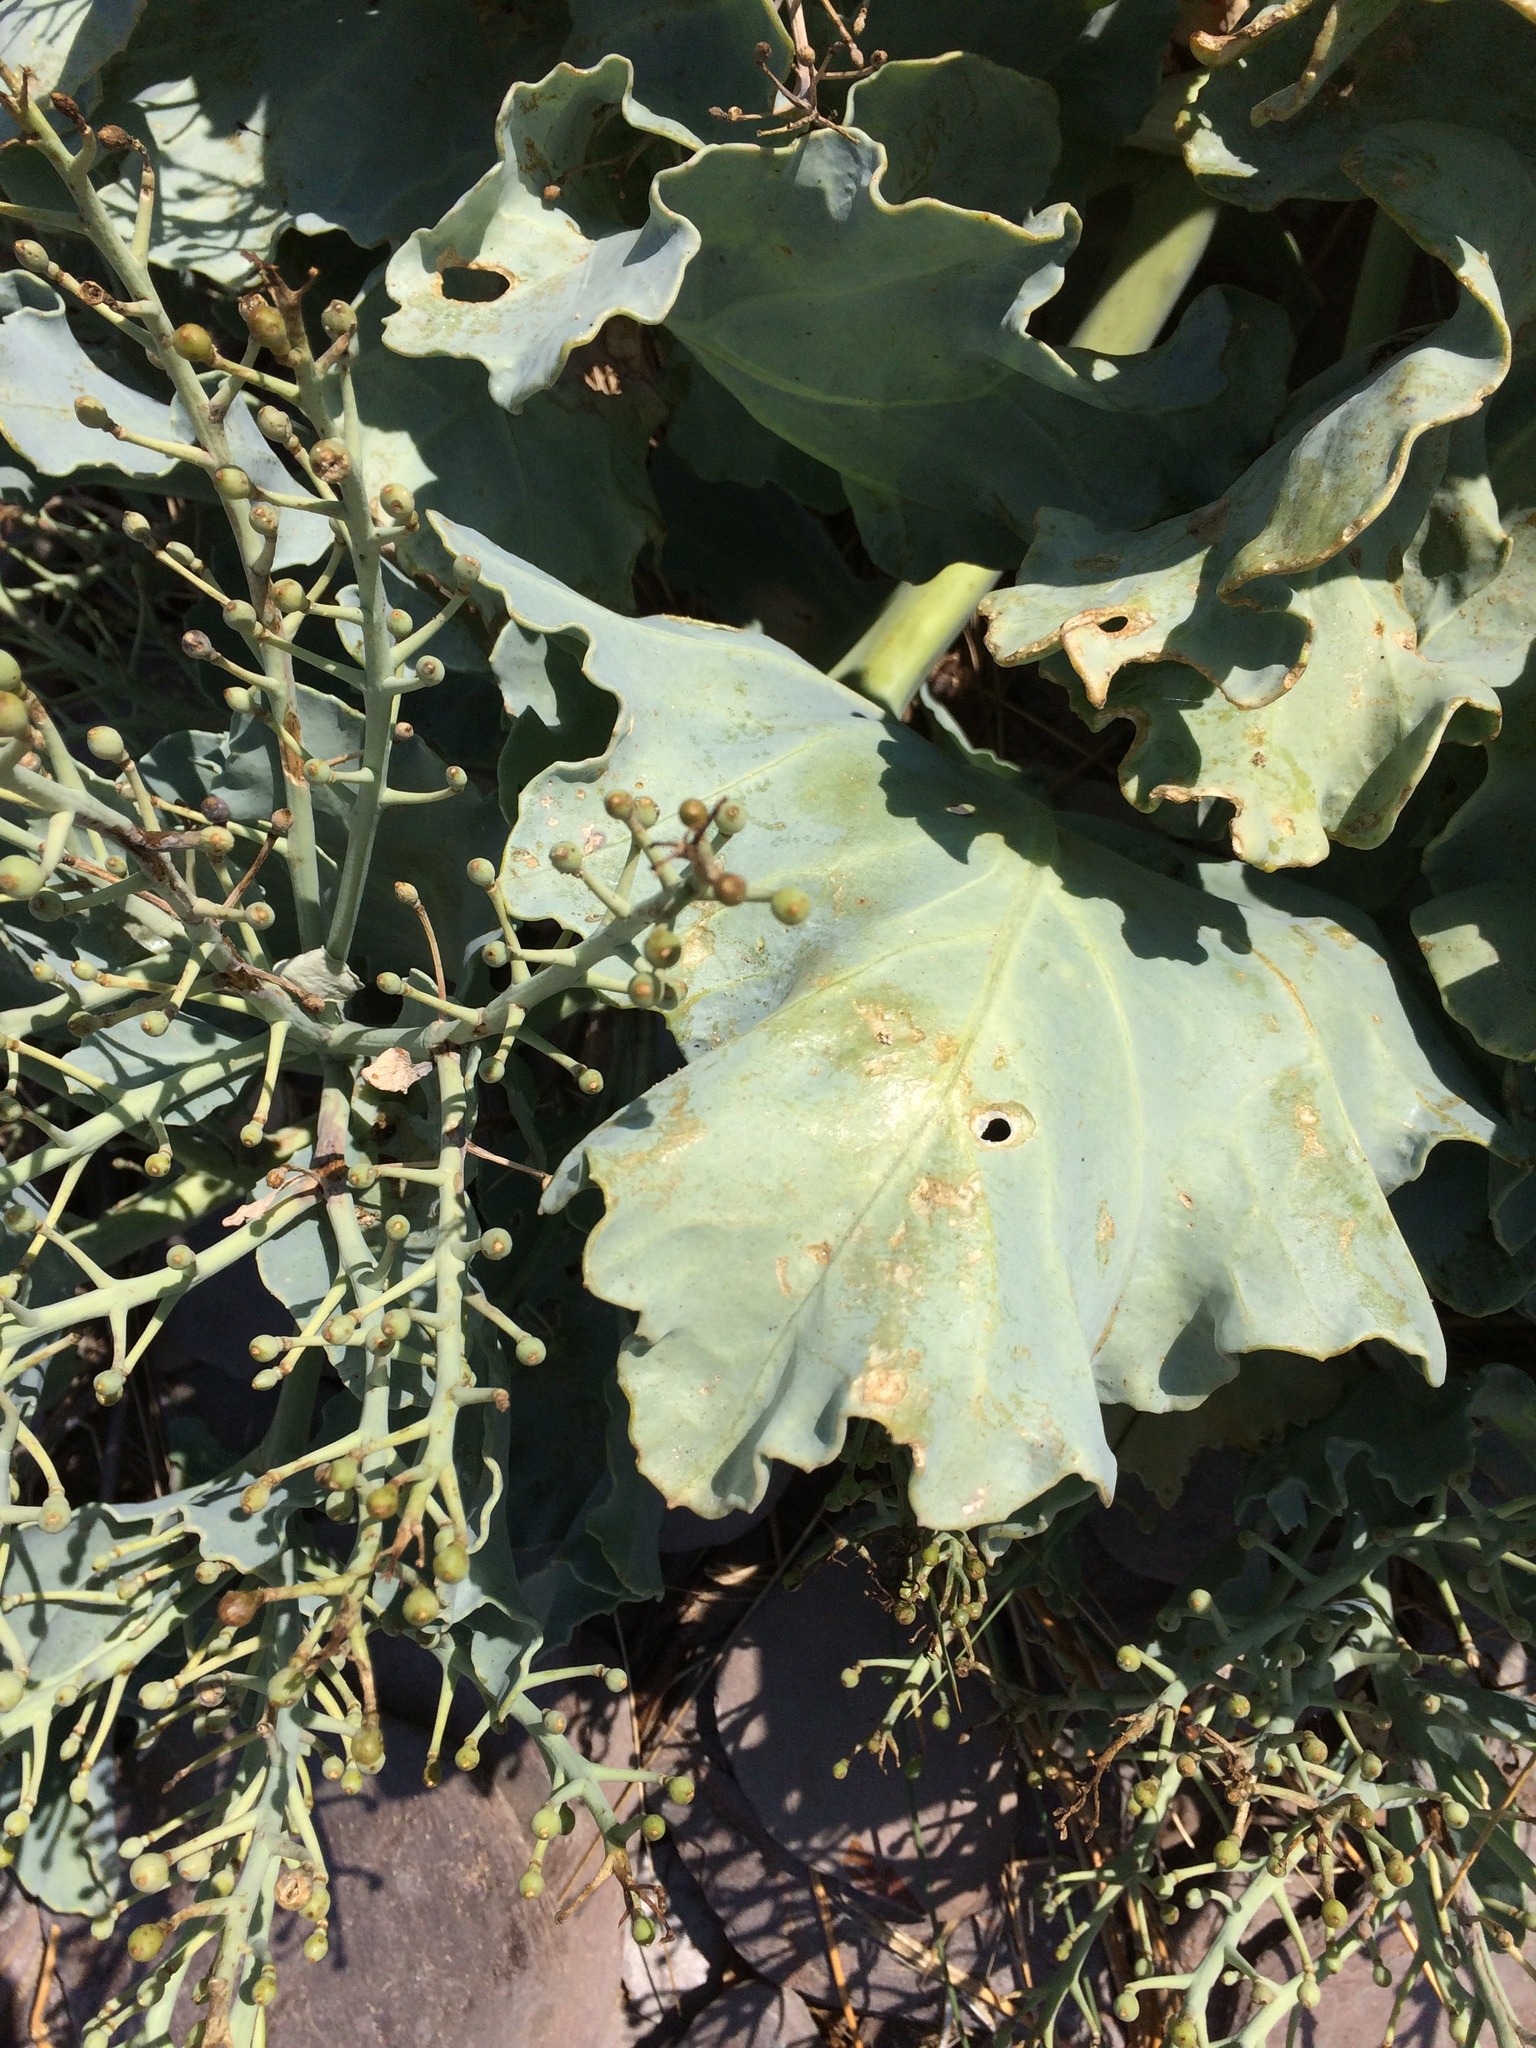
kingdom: Plantae
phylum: Tracheophyta
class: Magnoliopsida
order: Brassicales
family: Brassicaceae
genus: Crambe
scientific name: Crambe maritima
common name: Sea-kale
